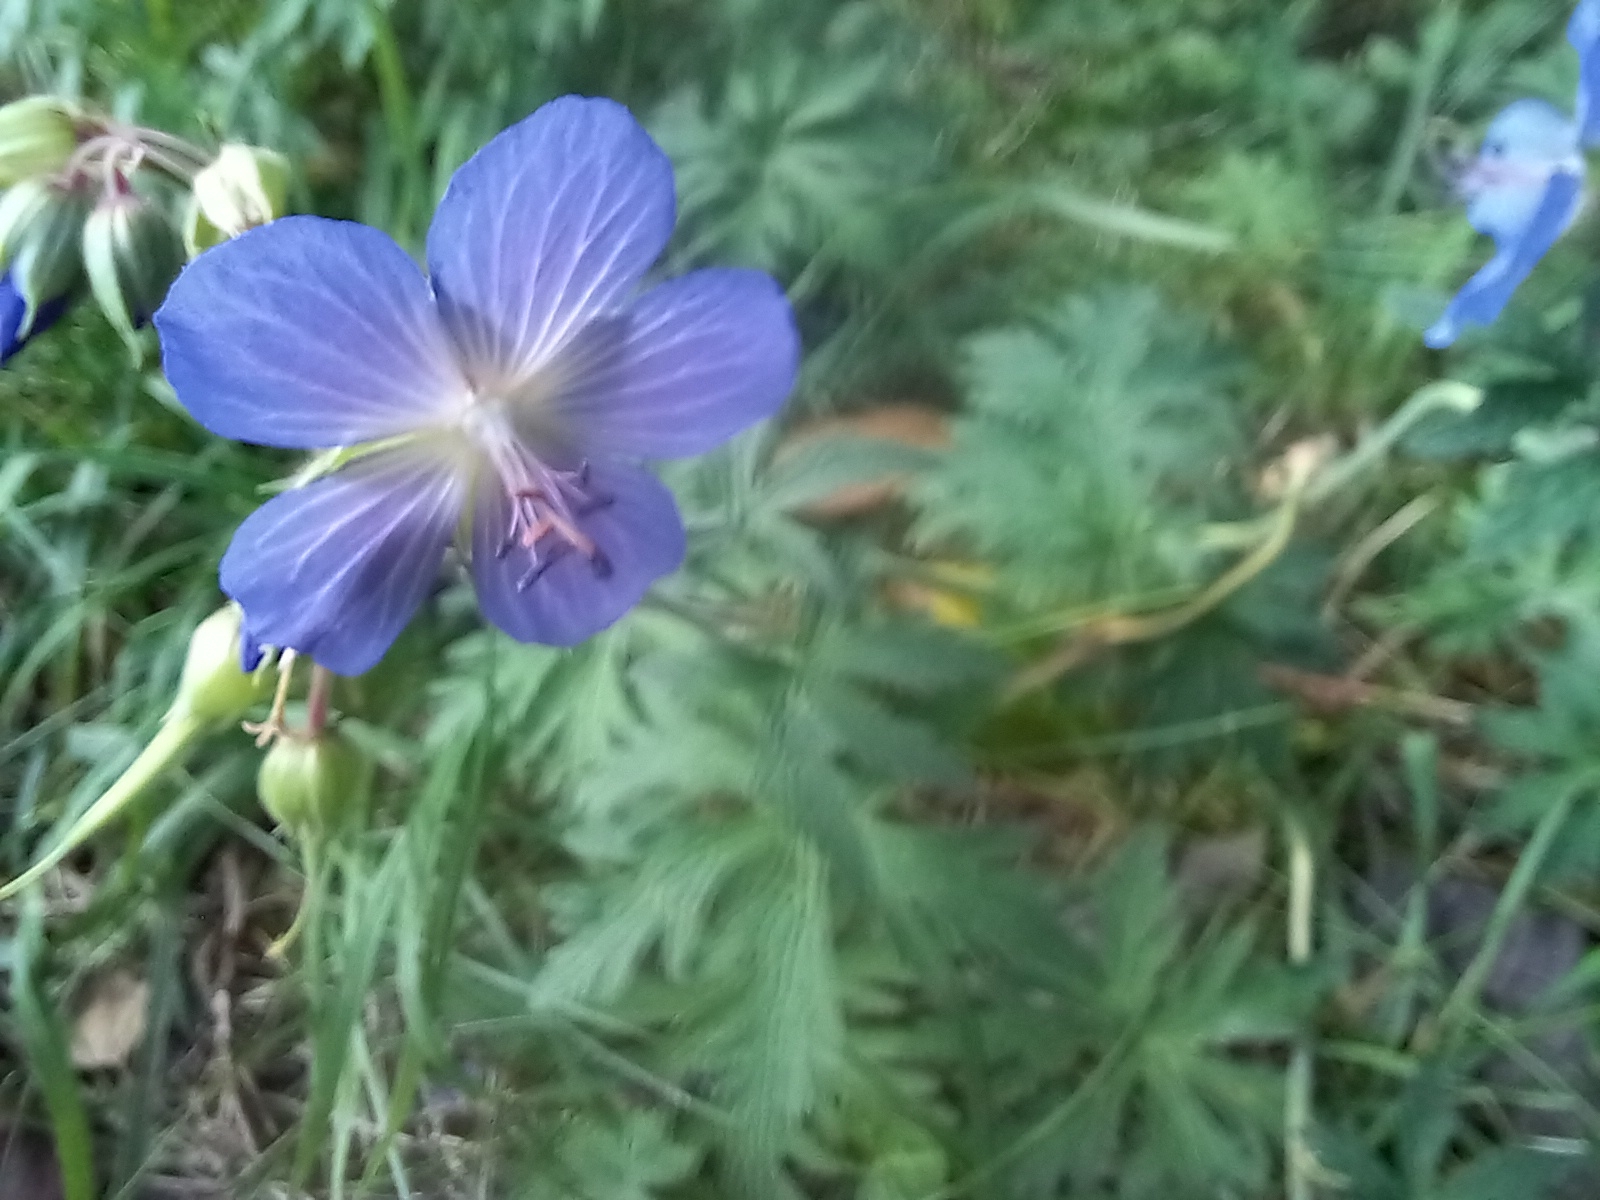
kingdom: Plantae
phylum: Tracheophyta
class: Magnoliopsida
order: Geraniales
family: Geraniaceae
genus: Geranium
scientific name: Geranium pratense
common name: Meadow crane's-bill
